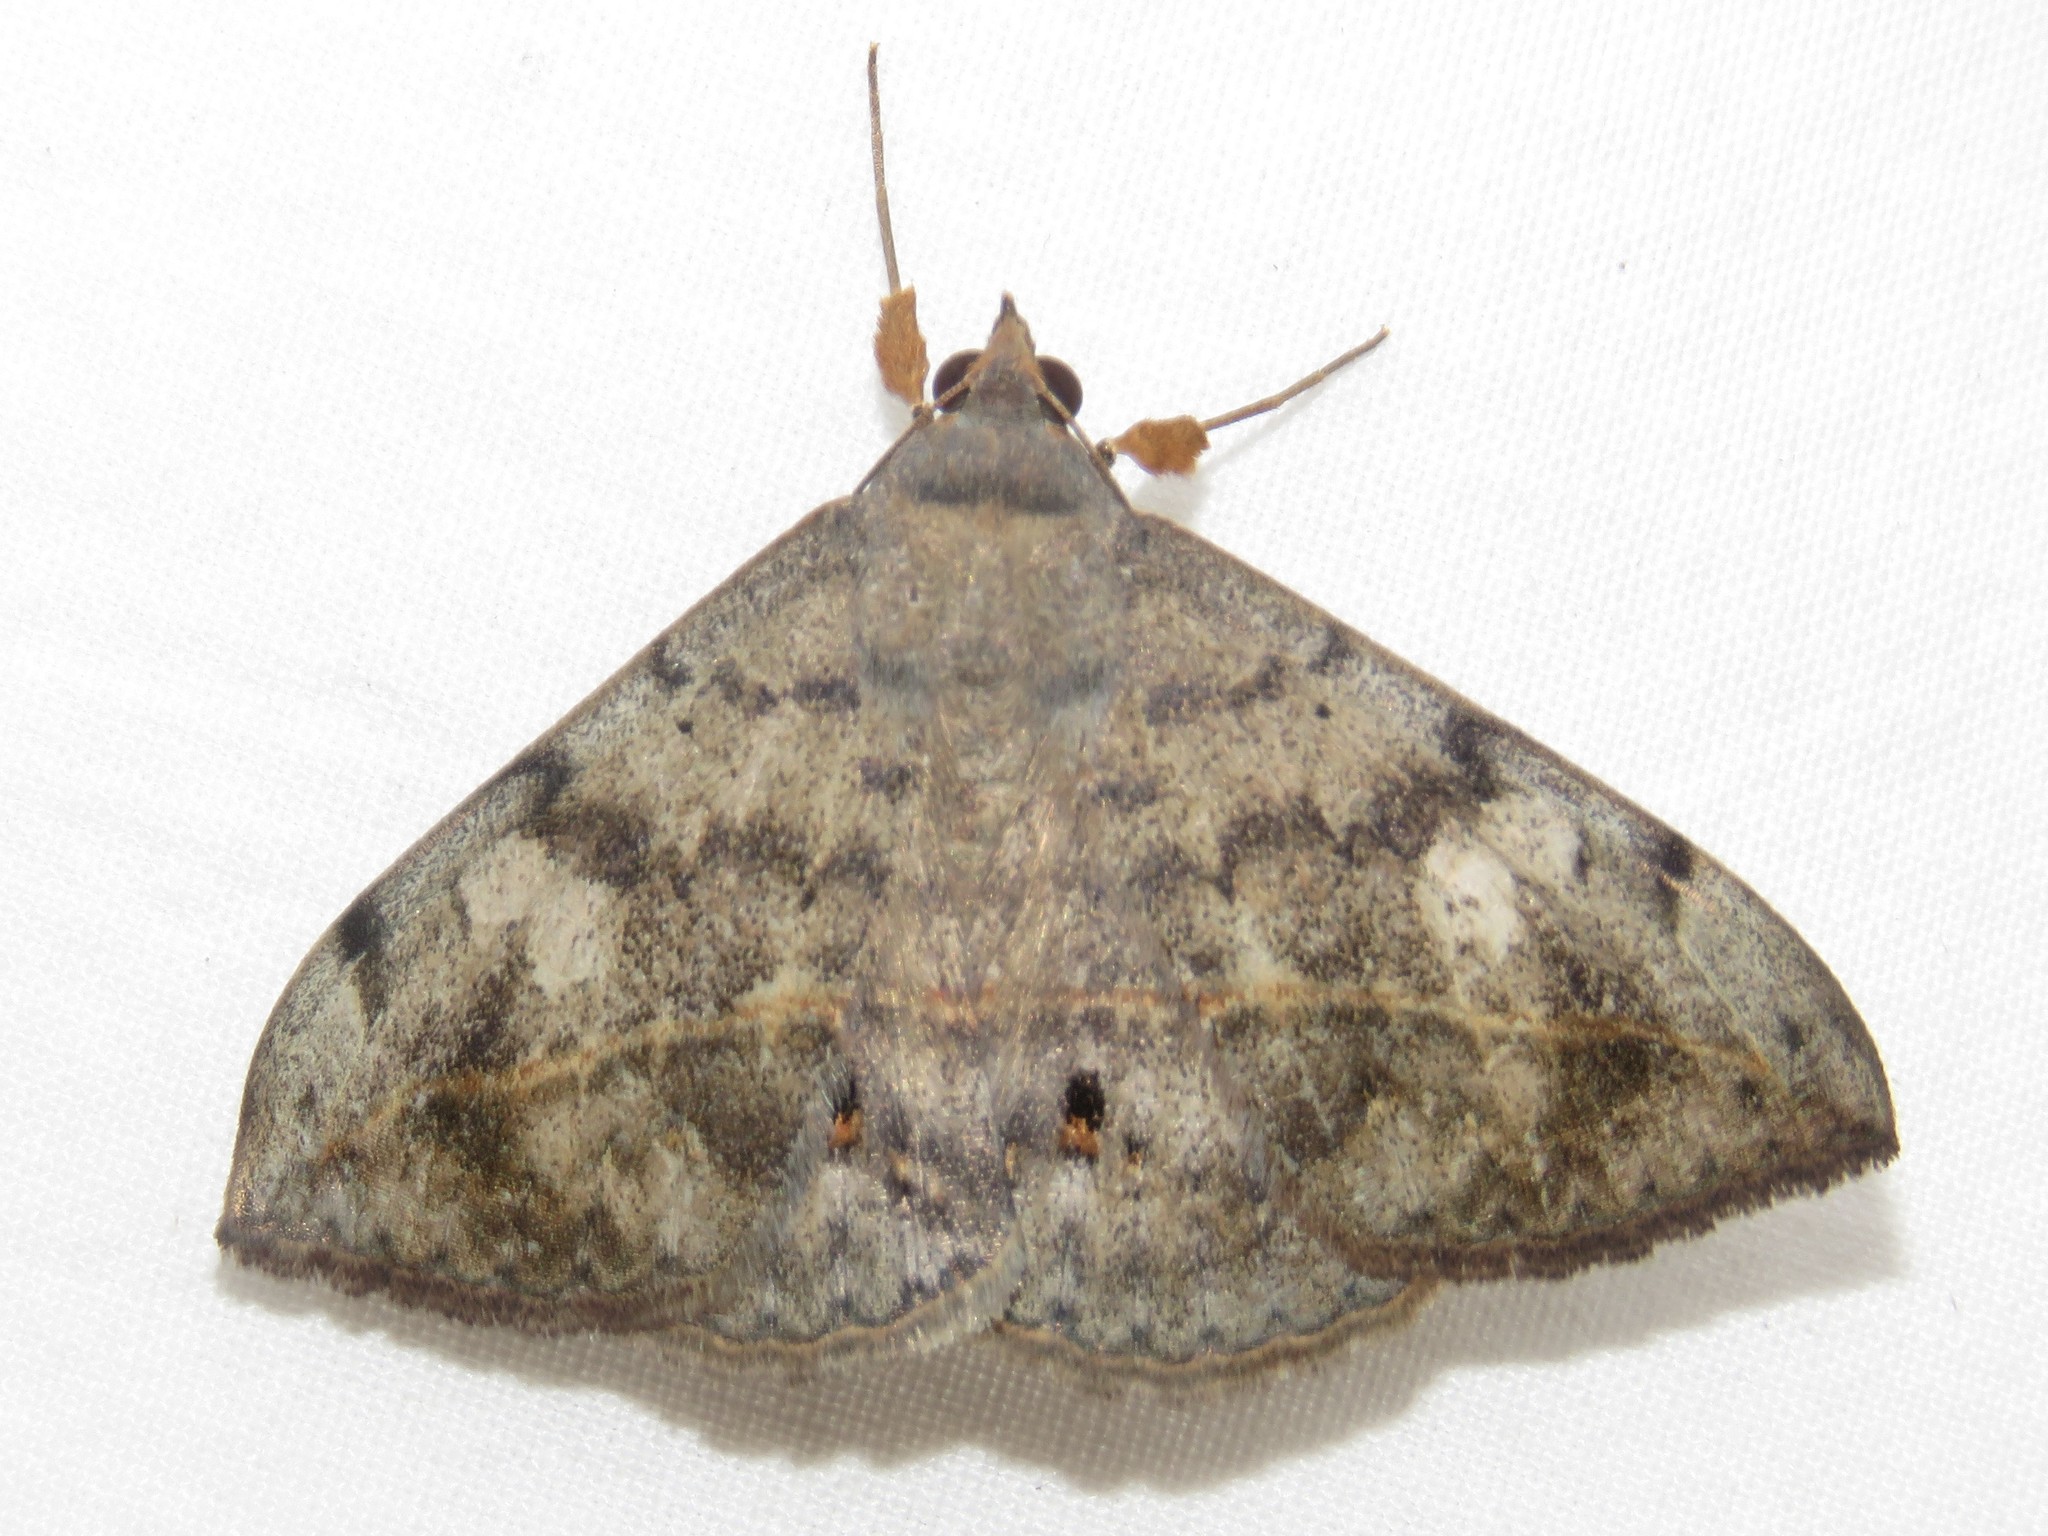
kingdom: Animalia
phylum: Arthropoda
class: Insecta
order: Lepidoptera
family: Erebidae
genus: Anticarsia
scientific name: Anticarsia gemmatalis
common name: Cutworm moth
